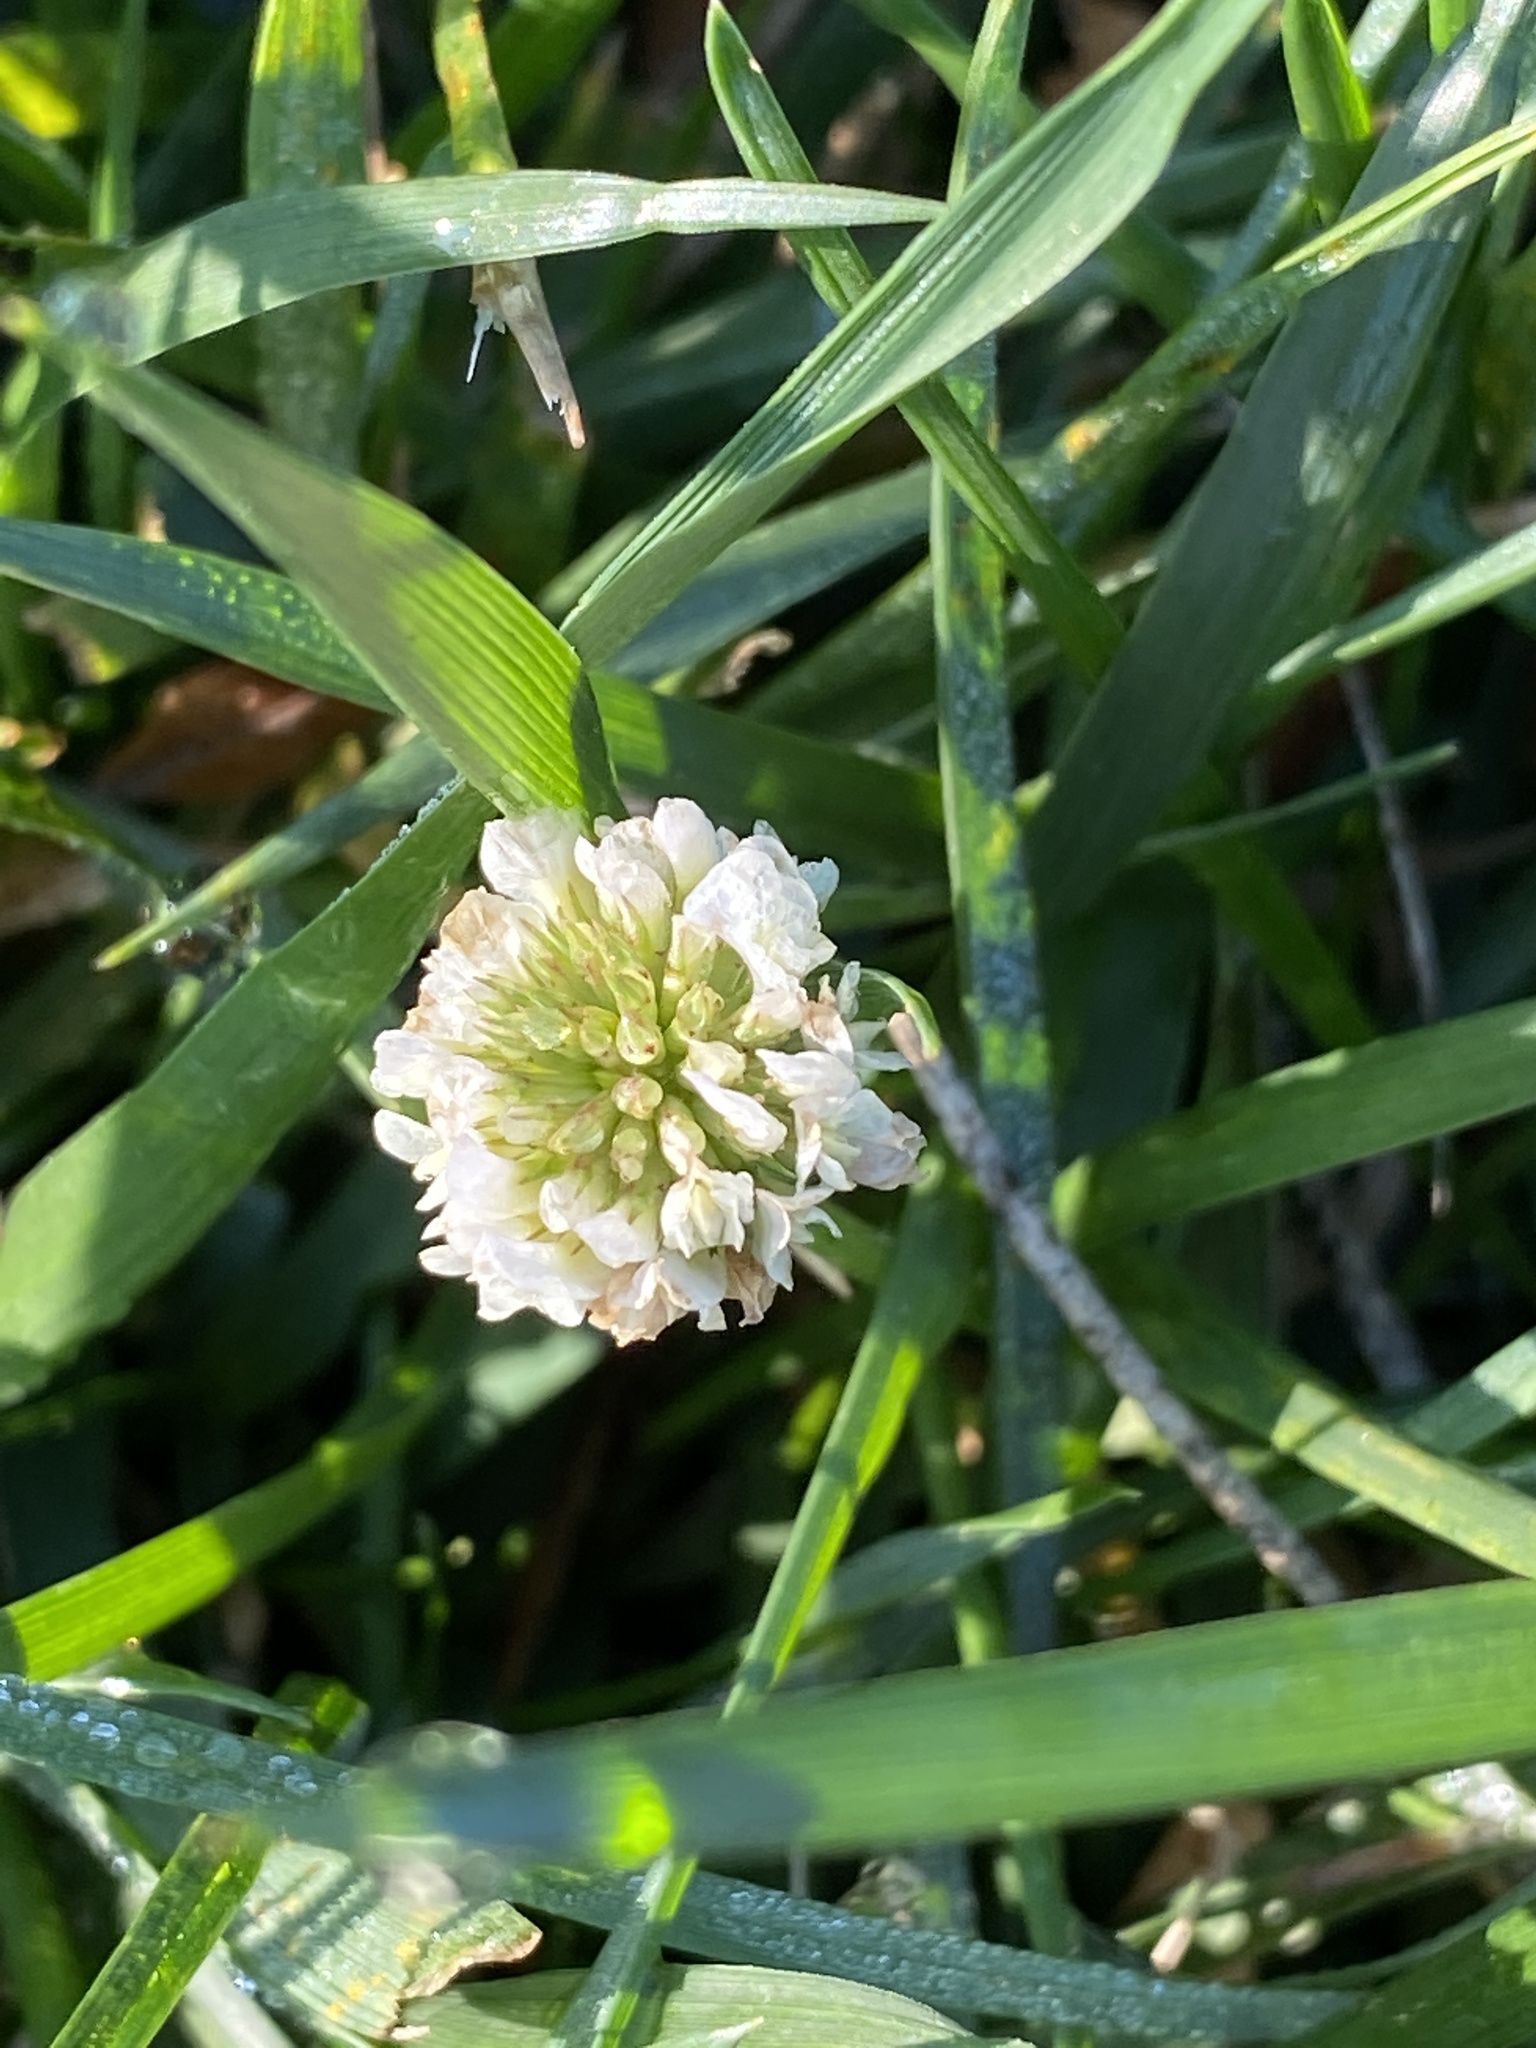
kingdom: Plantae
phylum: Tracheophyta
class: Magnoliopsida
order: Fabales
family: Fabaceae
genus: Trifolium
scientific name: Trifolium repens
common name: White clover
